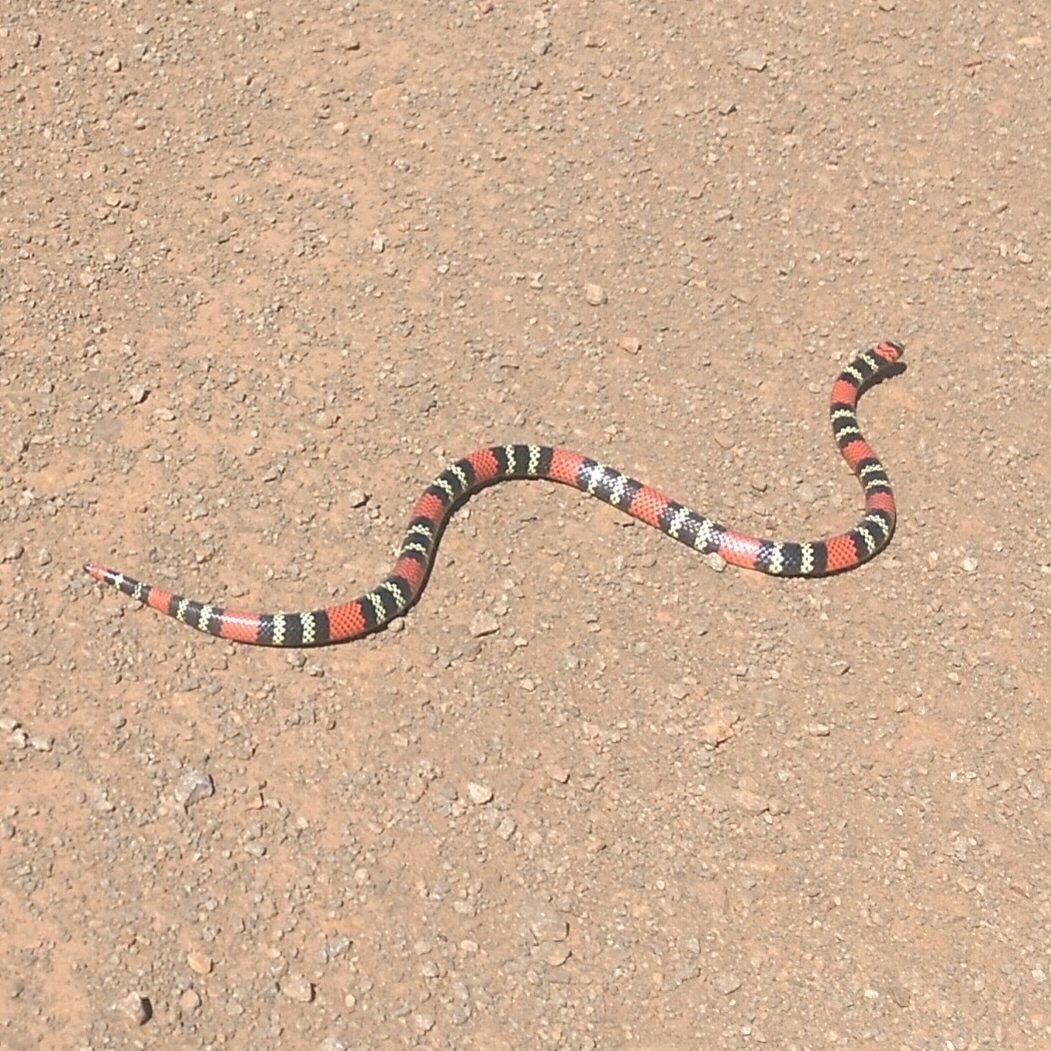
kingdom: Animalia
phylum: Chordata
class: Squamata
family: Elapidae
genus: Micrurus
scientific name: Micrurus altirostris
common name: Uruguayan coral snake
